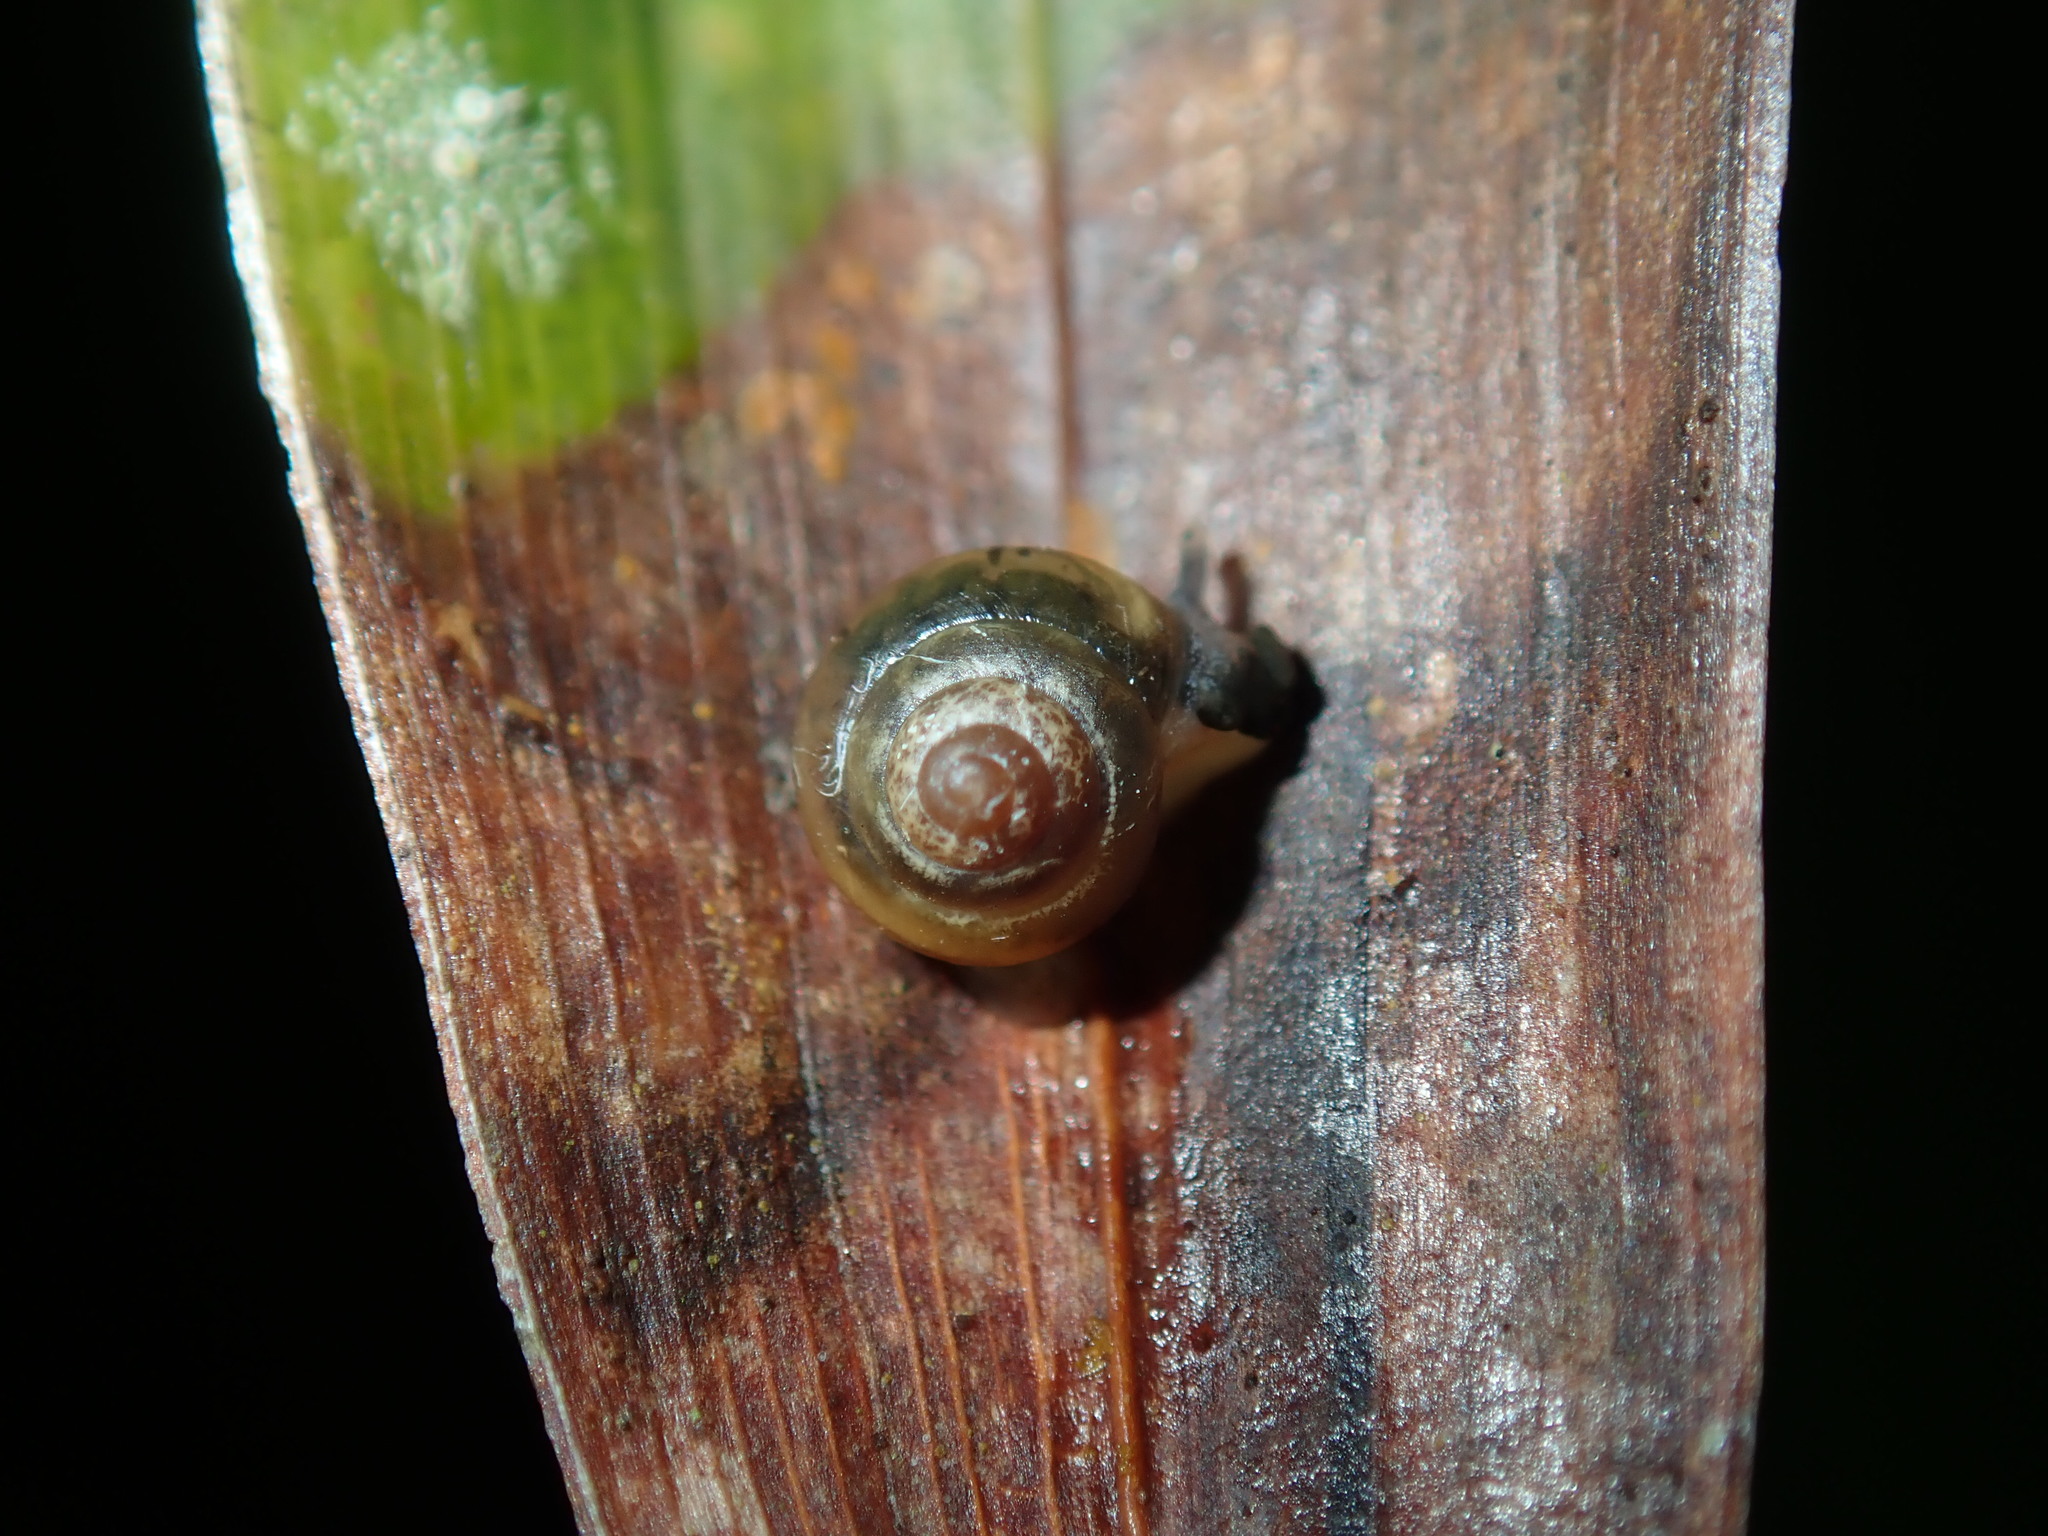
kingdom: Animalia
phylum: Mollusca
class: Gastropoda
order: Stylommatophora
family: Euconulidae
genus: Coneuplecta
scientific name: Coneuplecta calculosa
